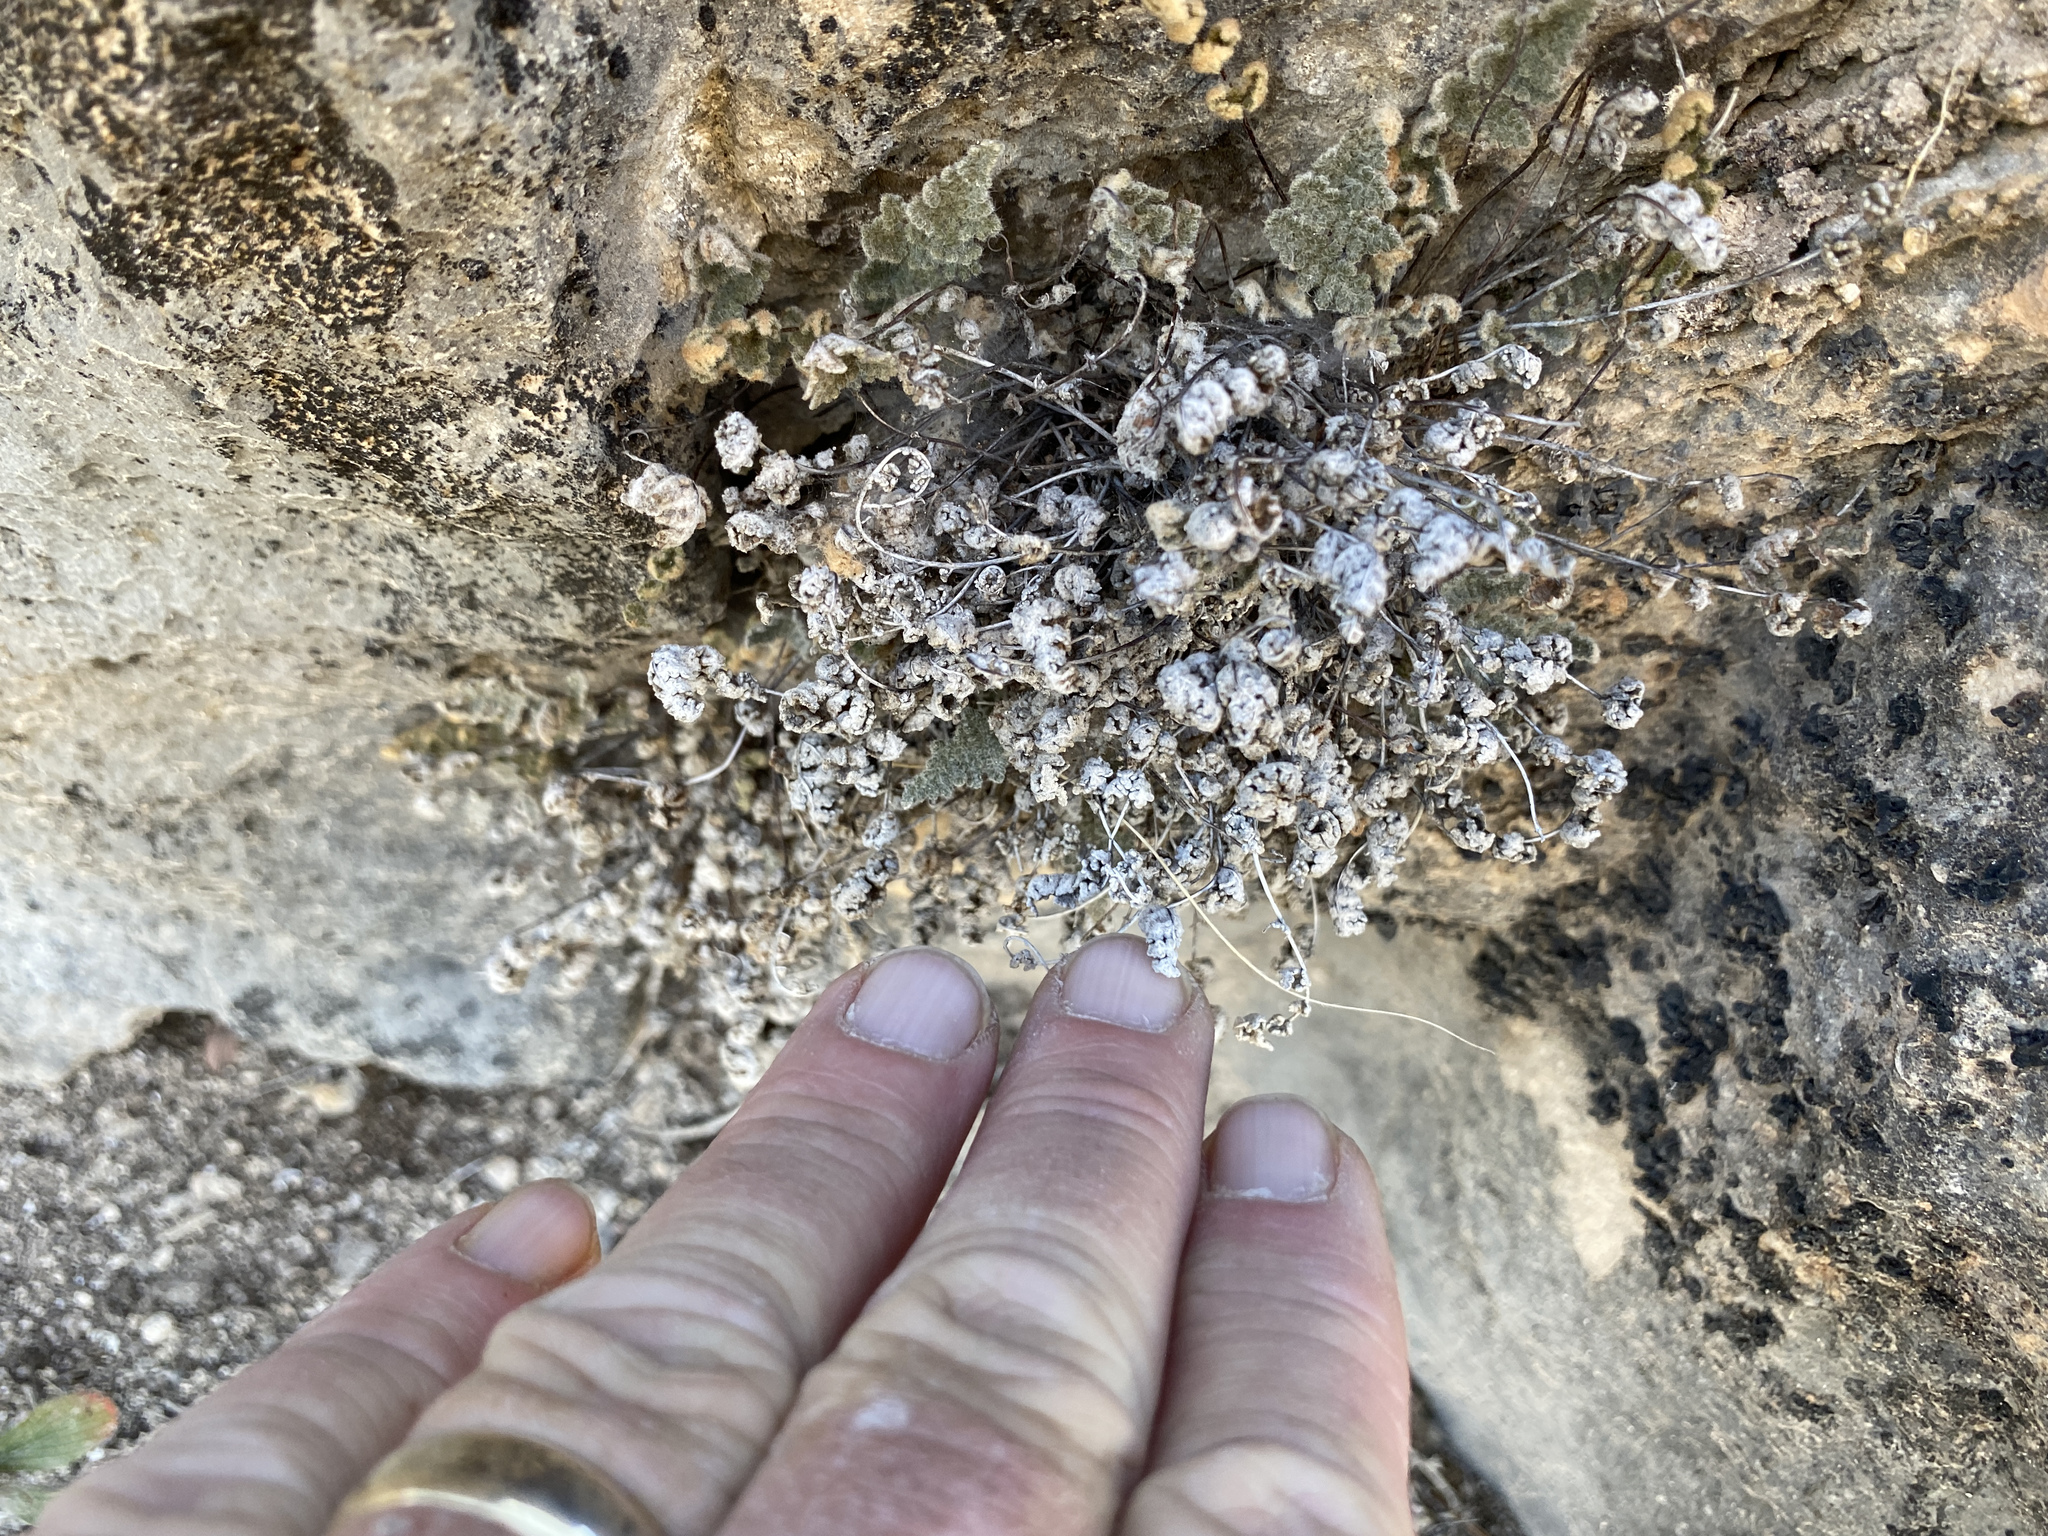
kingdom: Plantae
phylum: Tracheophyta
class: Polypodiopsida
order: Polypodiales
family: Pteridaceae
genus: Myriopteris
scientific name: Myriopteris gracilis
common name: Fee's lip fern
